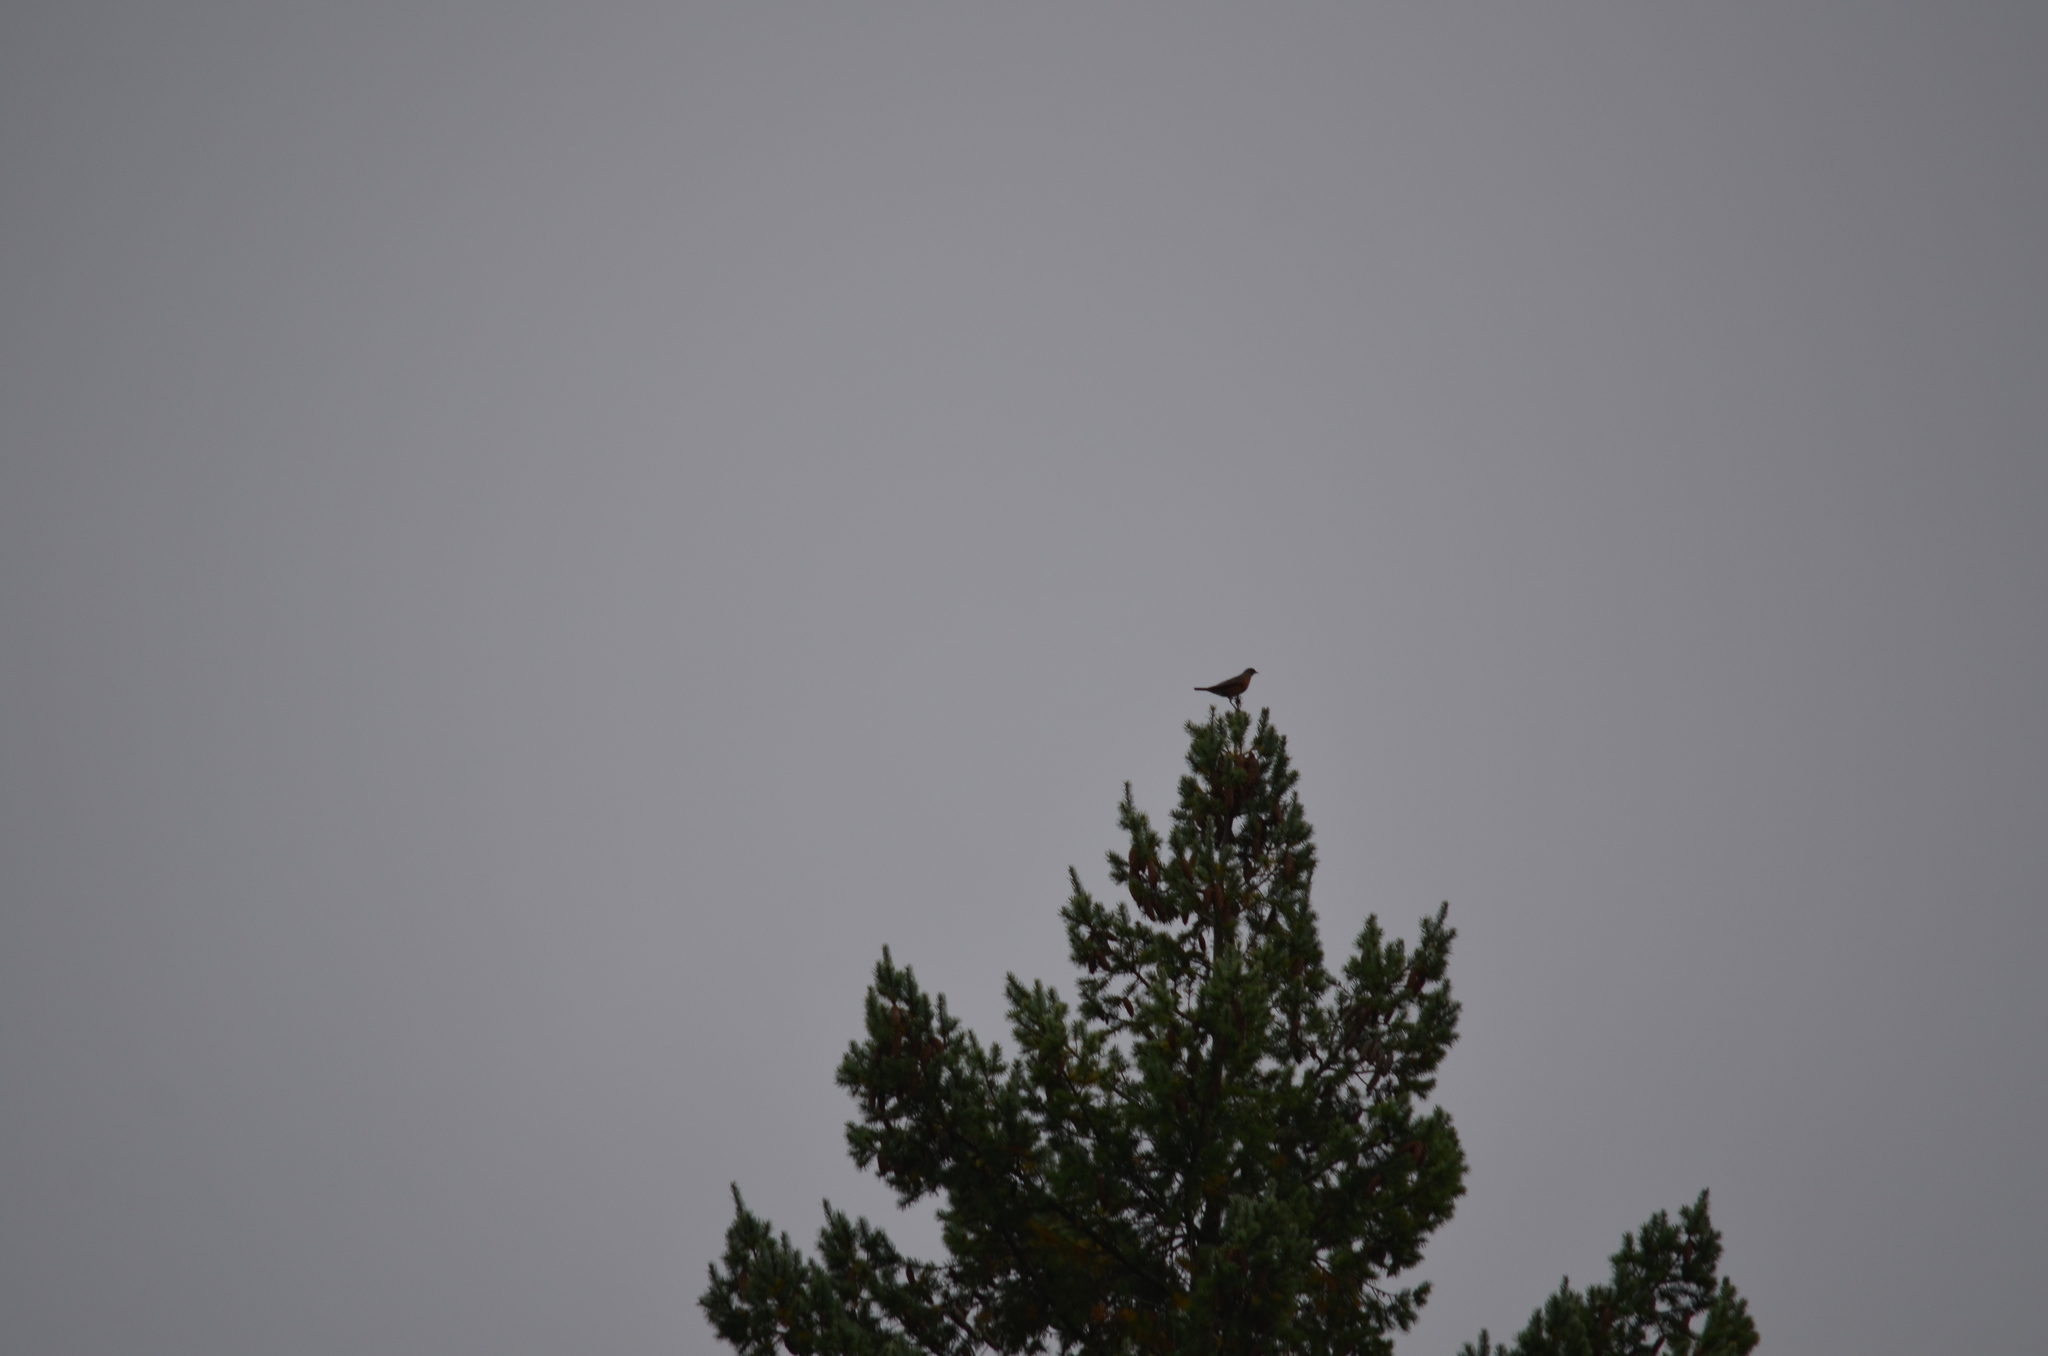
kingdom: Animalia
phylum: Chordata
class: Aves
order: Passeriformes
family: Turdidae
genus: Turdus
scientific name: Turdus migratorius
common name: American robin
